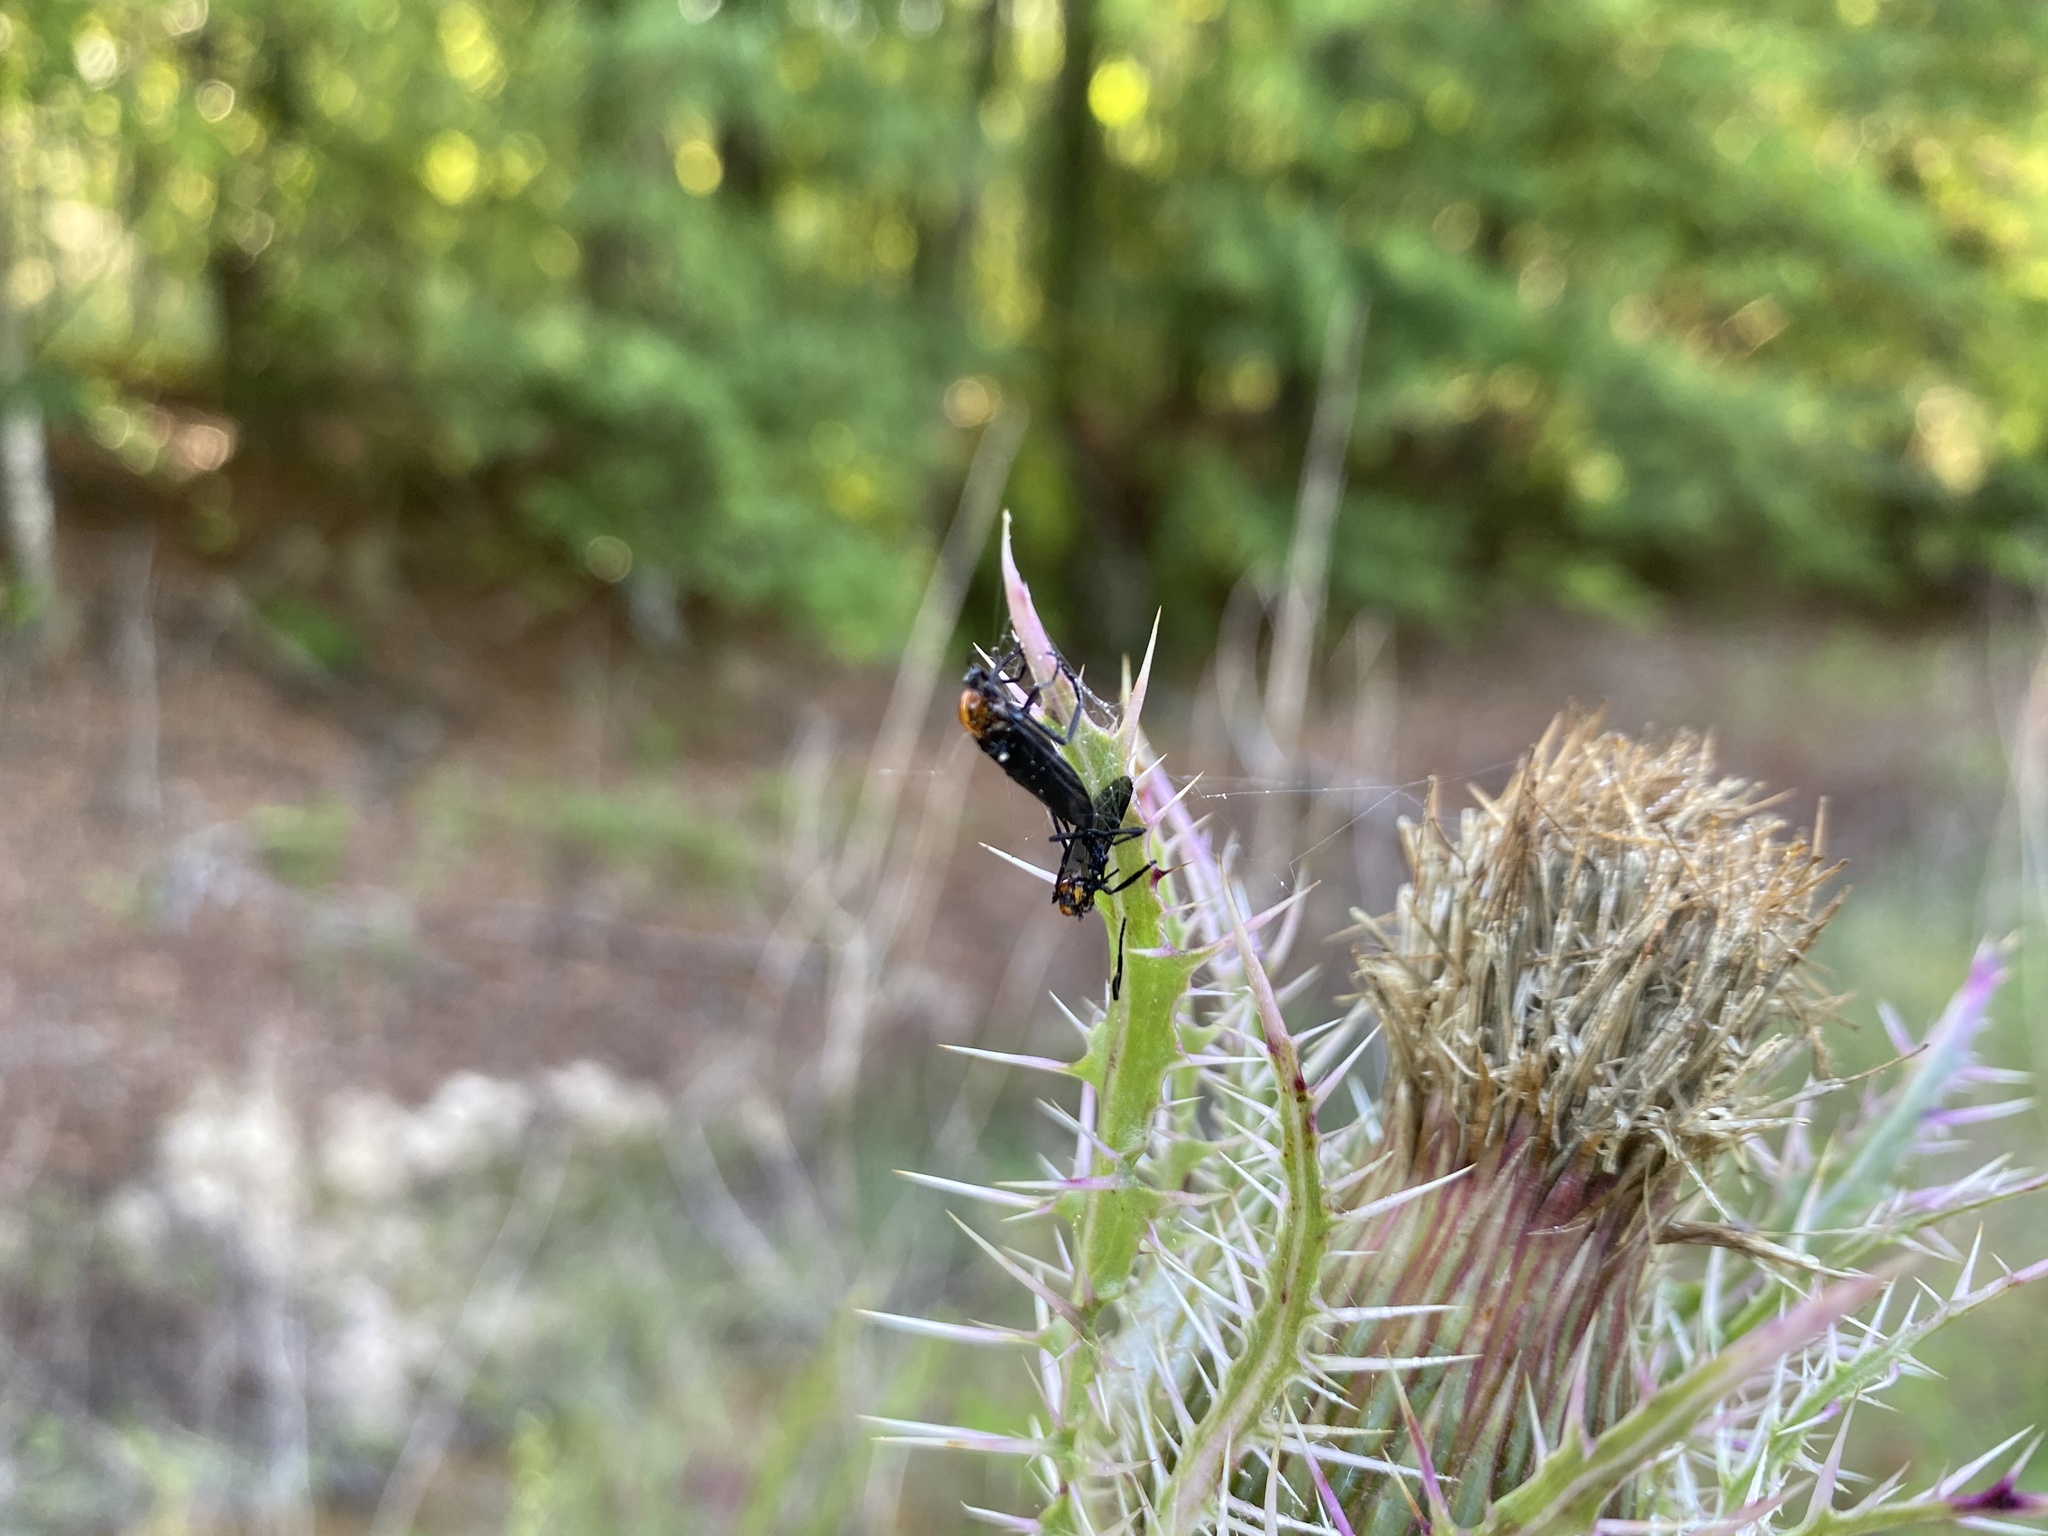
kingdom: Animalia
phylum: Arthropoda
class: Insecta
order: Diptera
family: Bibionidae
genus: Plecia
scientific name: Plecia nearctica
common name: March fly
